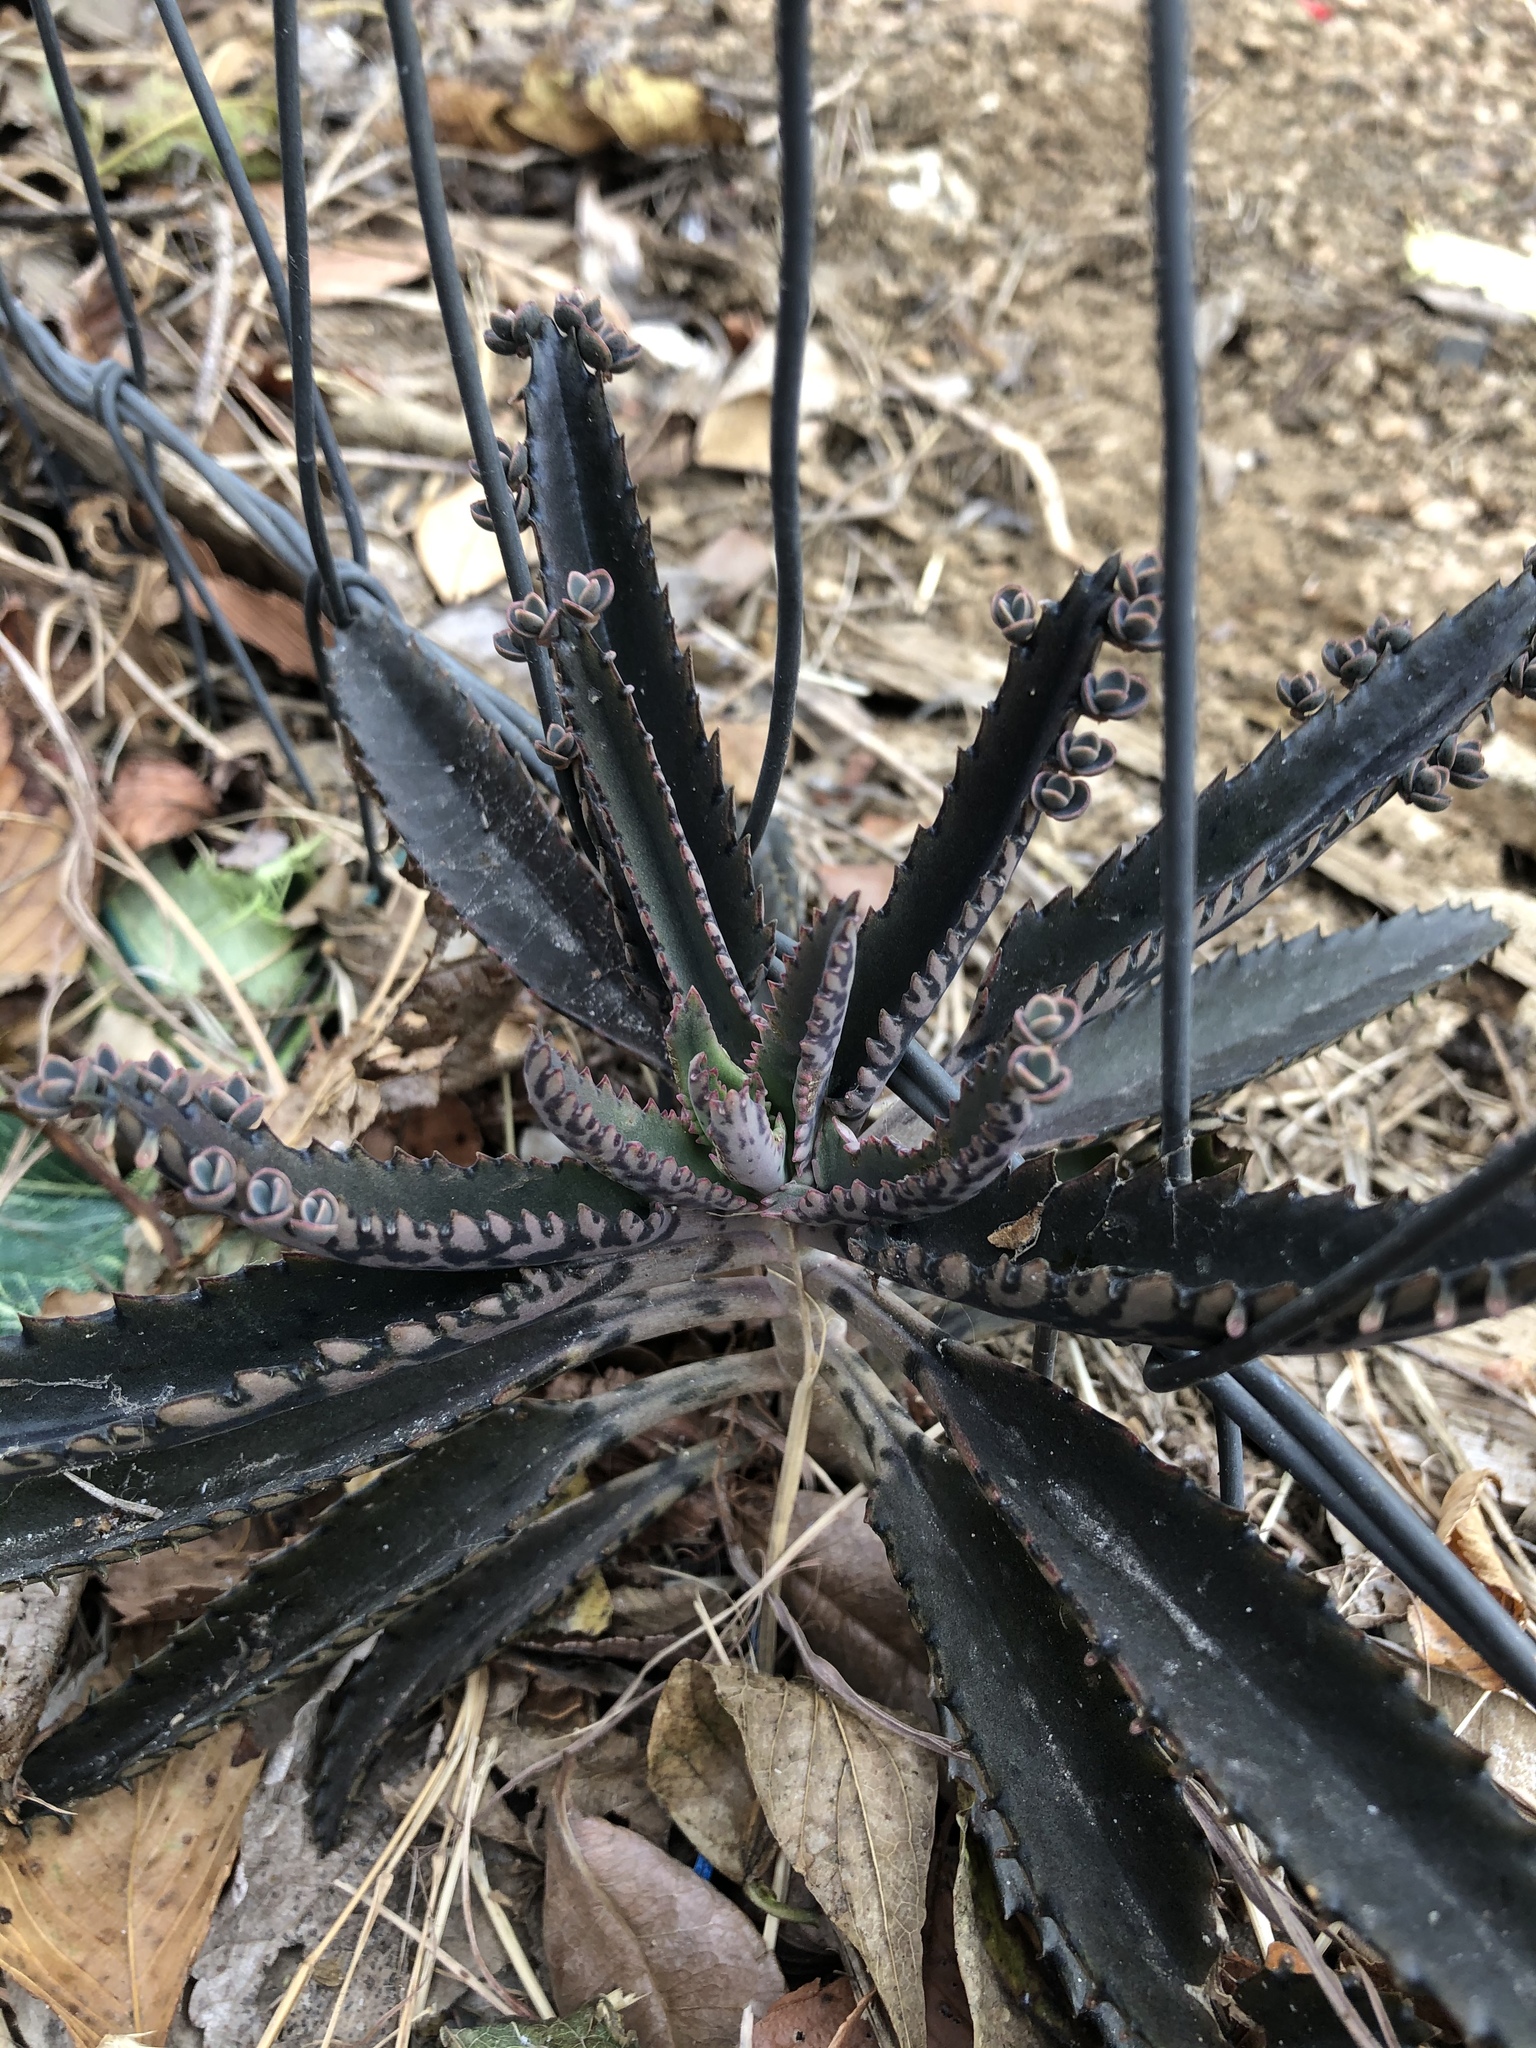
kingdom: Plantae
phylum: Tracheophyta
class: Magnoliopsida
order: Saxifragales
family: Crassulaceae
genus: Kalanchoe
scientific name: Kalanchoe houghtonii
